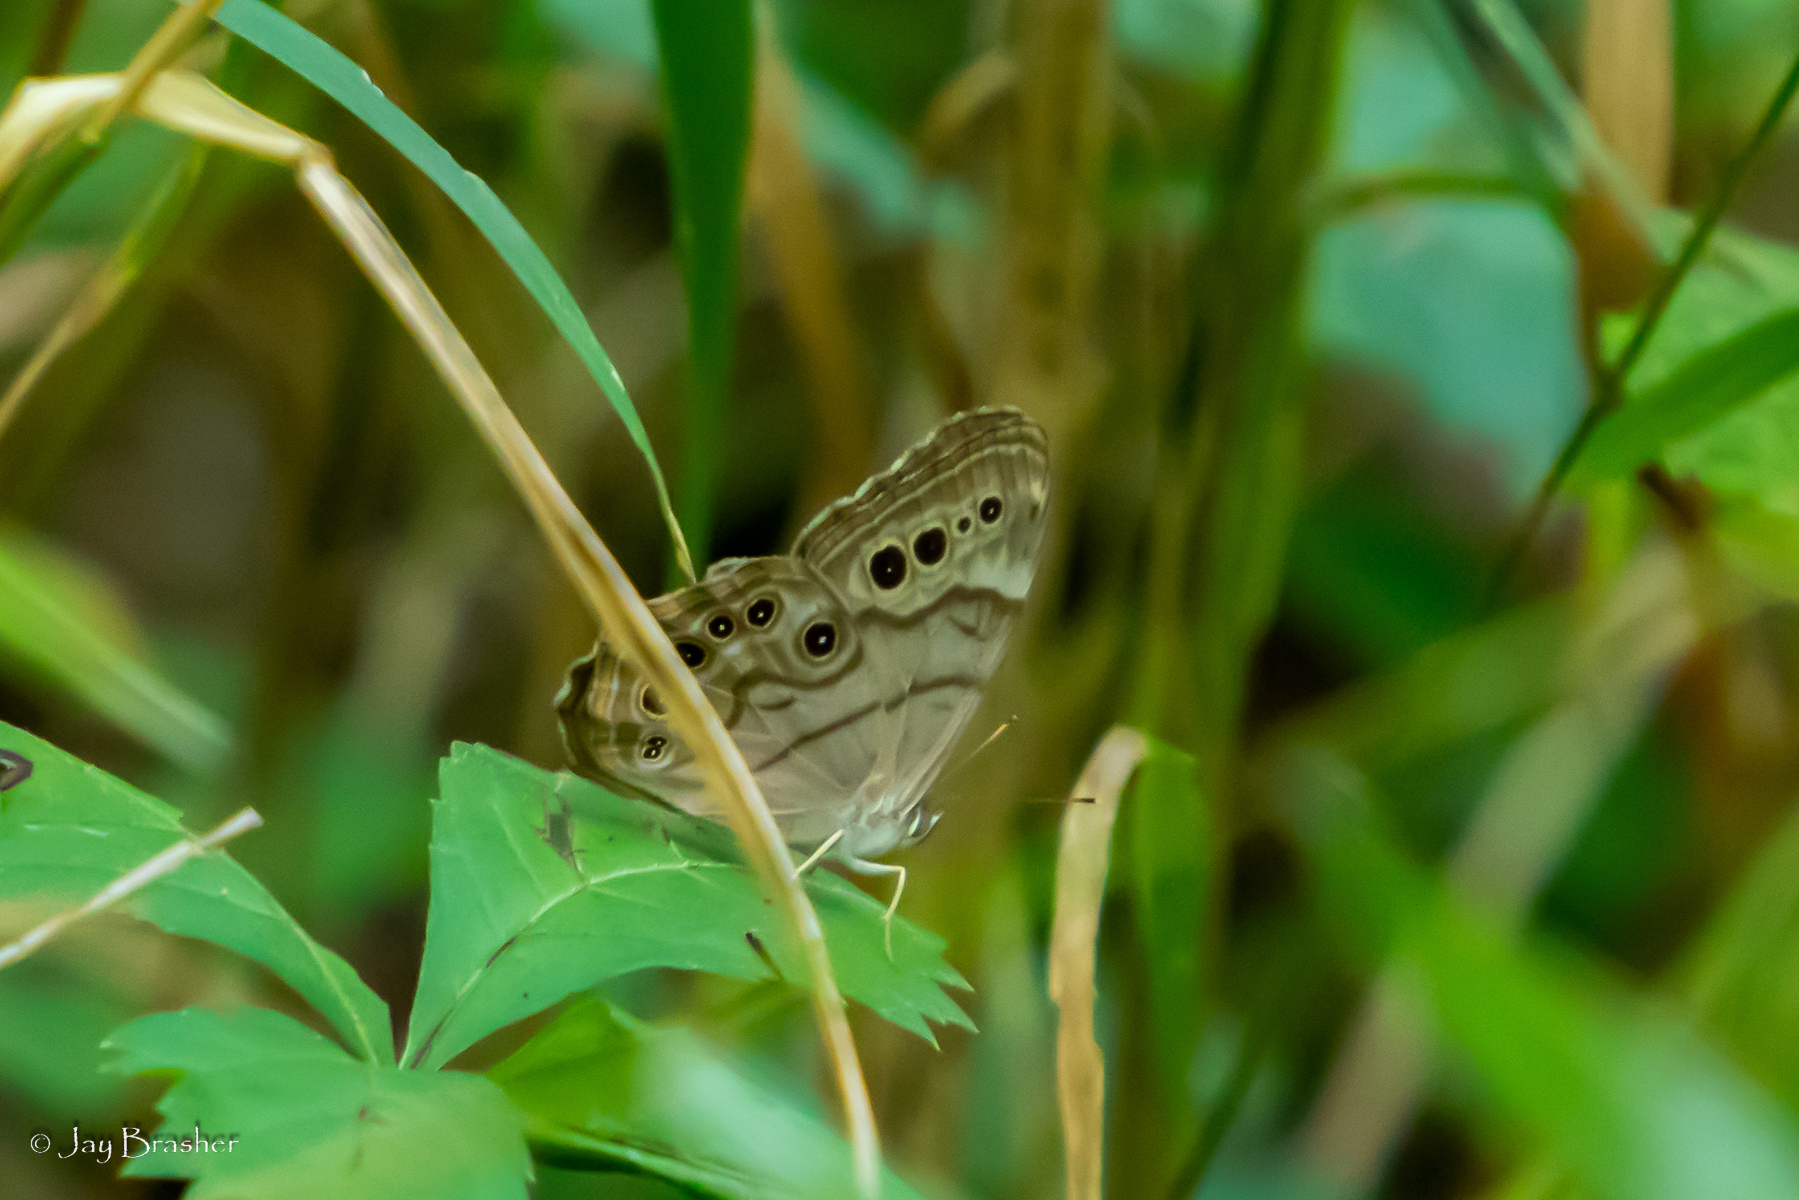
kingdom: Animalia
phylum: Arthropoda
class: Insecta
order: Lepidoptera
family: Nymphalidae
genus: Lethe
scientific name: Lethe anthedon
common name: Northern pearly-eye
